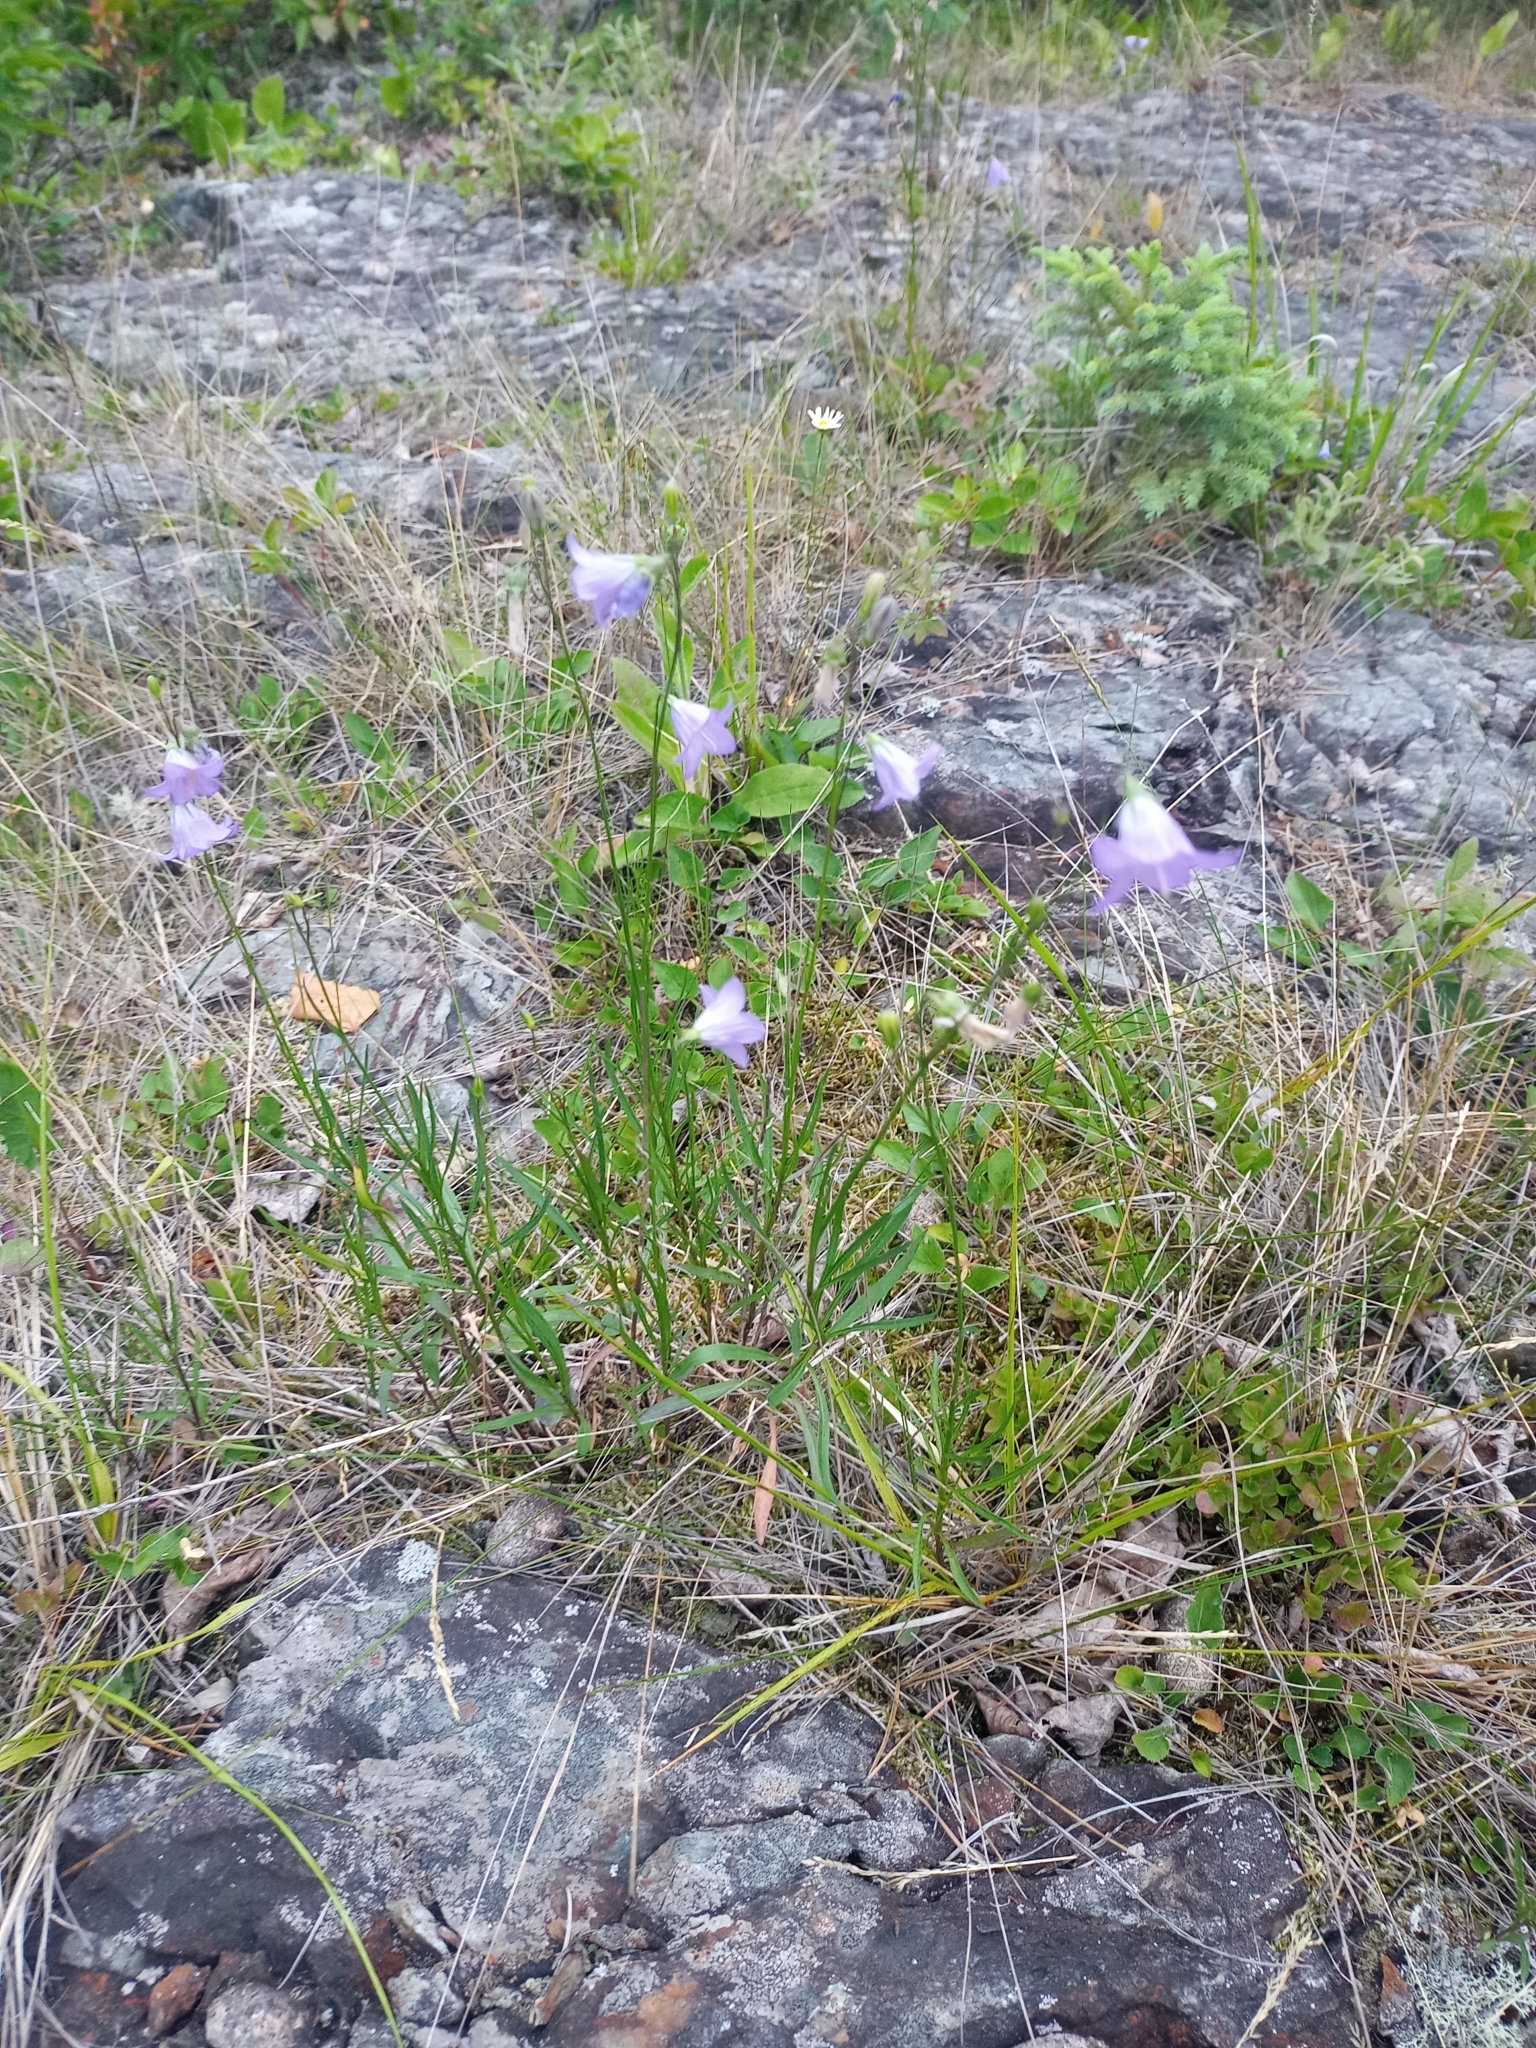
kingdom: Plantae
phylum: Tracheophyta
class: Magnoliopsida
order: Asterales
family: Campanulaceae
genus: Campanula
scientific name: Campanula giesekiana
